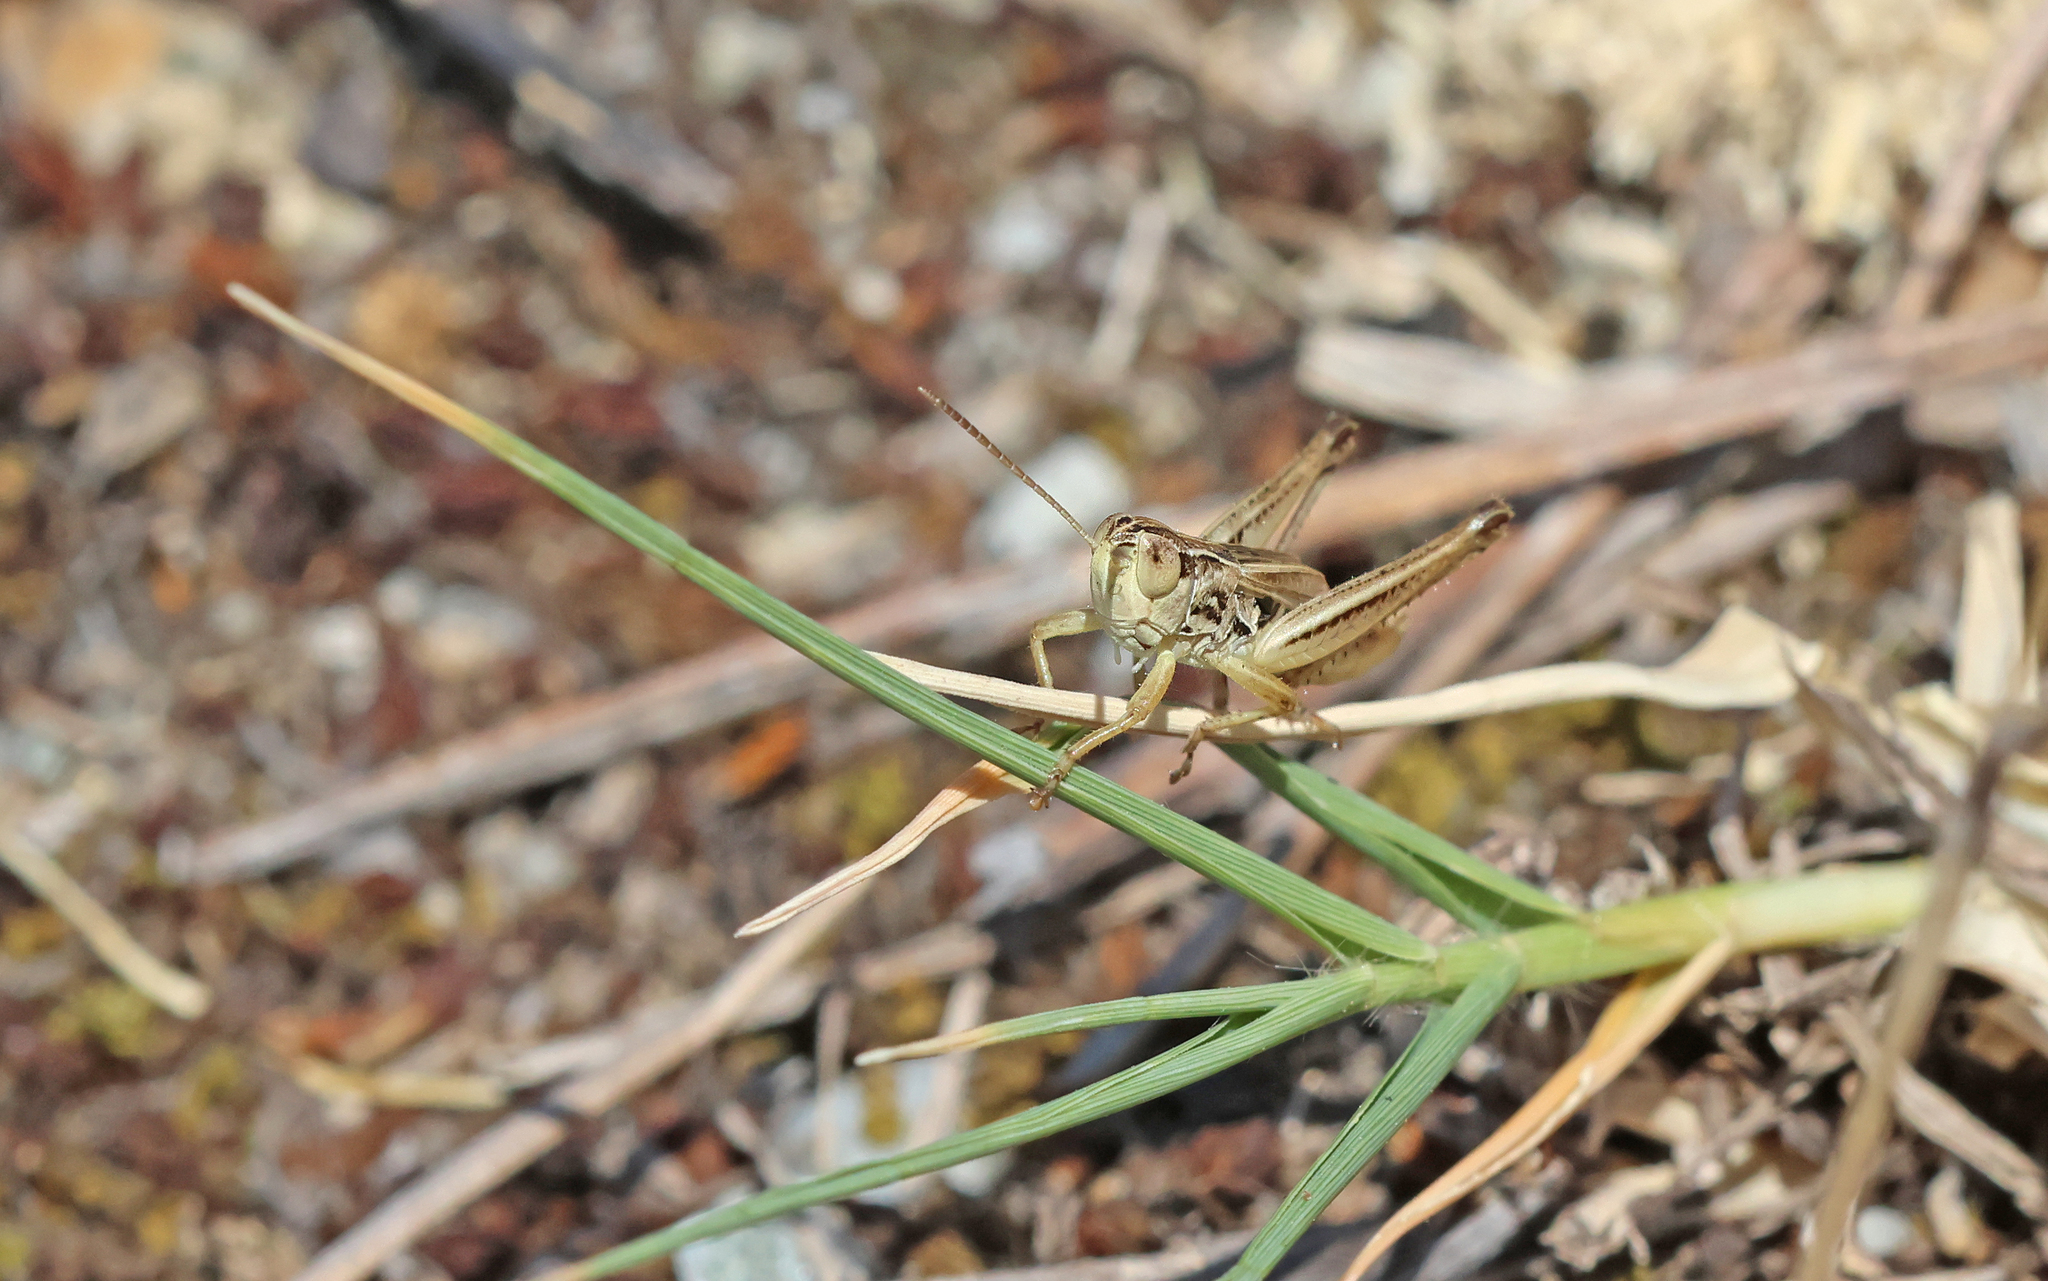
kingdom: Animalia
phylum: Arthropoda
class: Insecta
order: Orthoptera
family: Acrididae
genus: Stenobothrus
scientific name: Stenobothrus crassipes
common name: Pygmy toothed grasshopper
